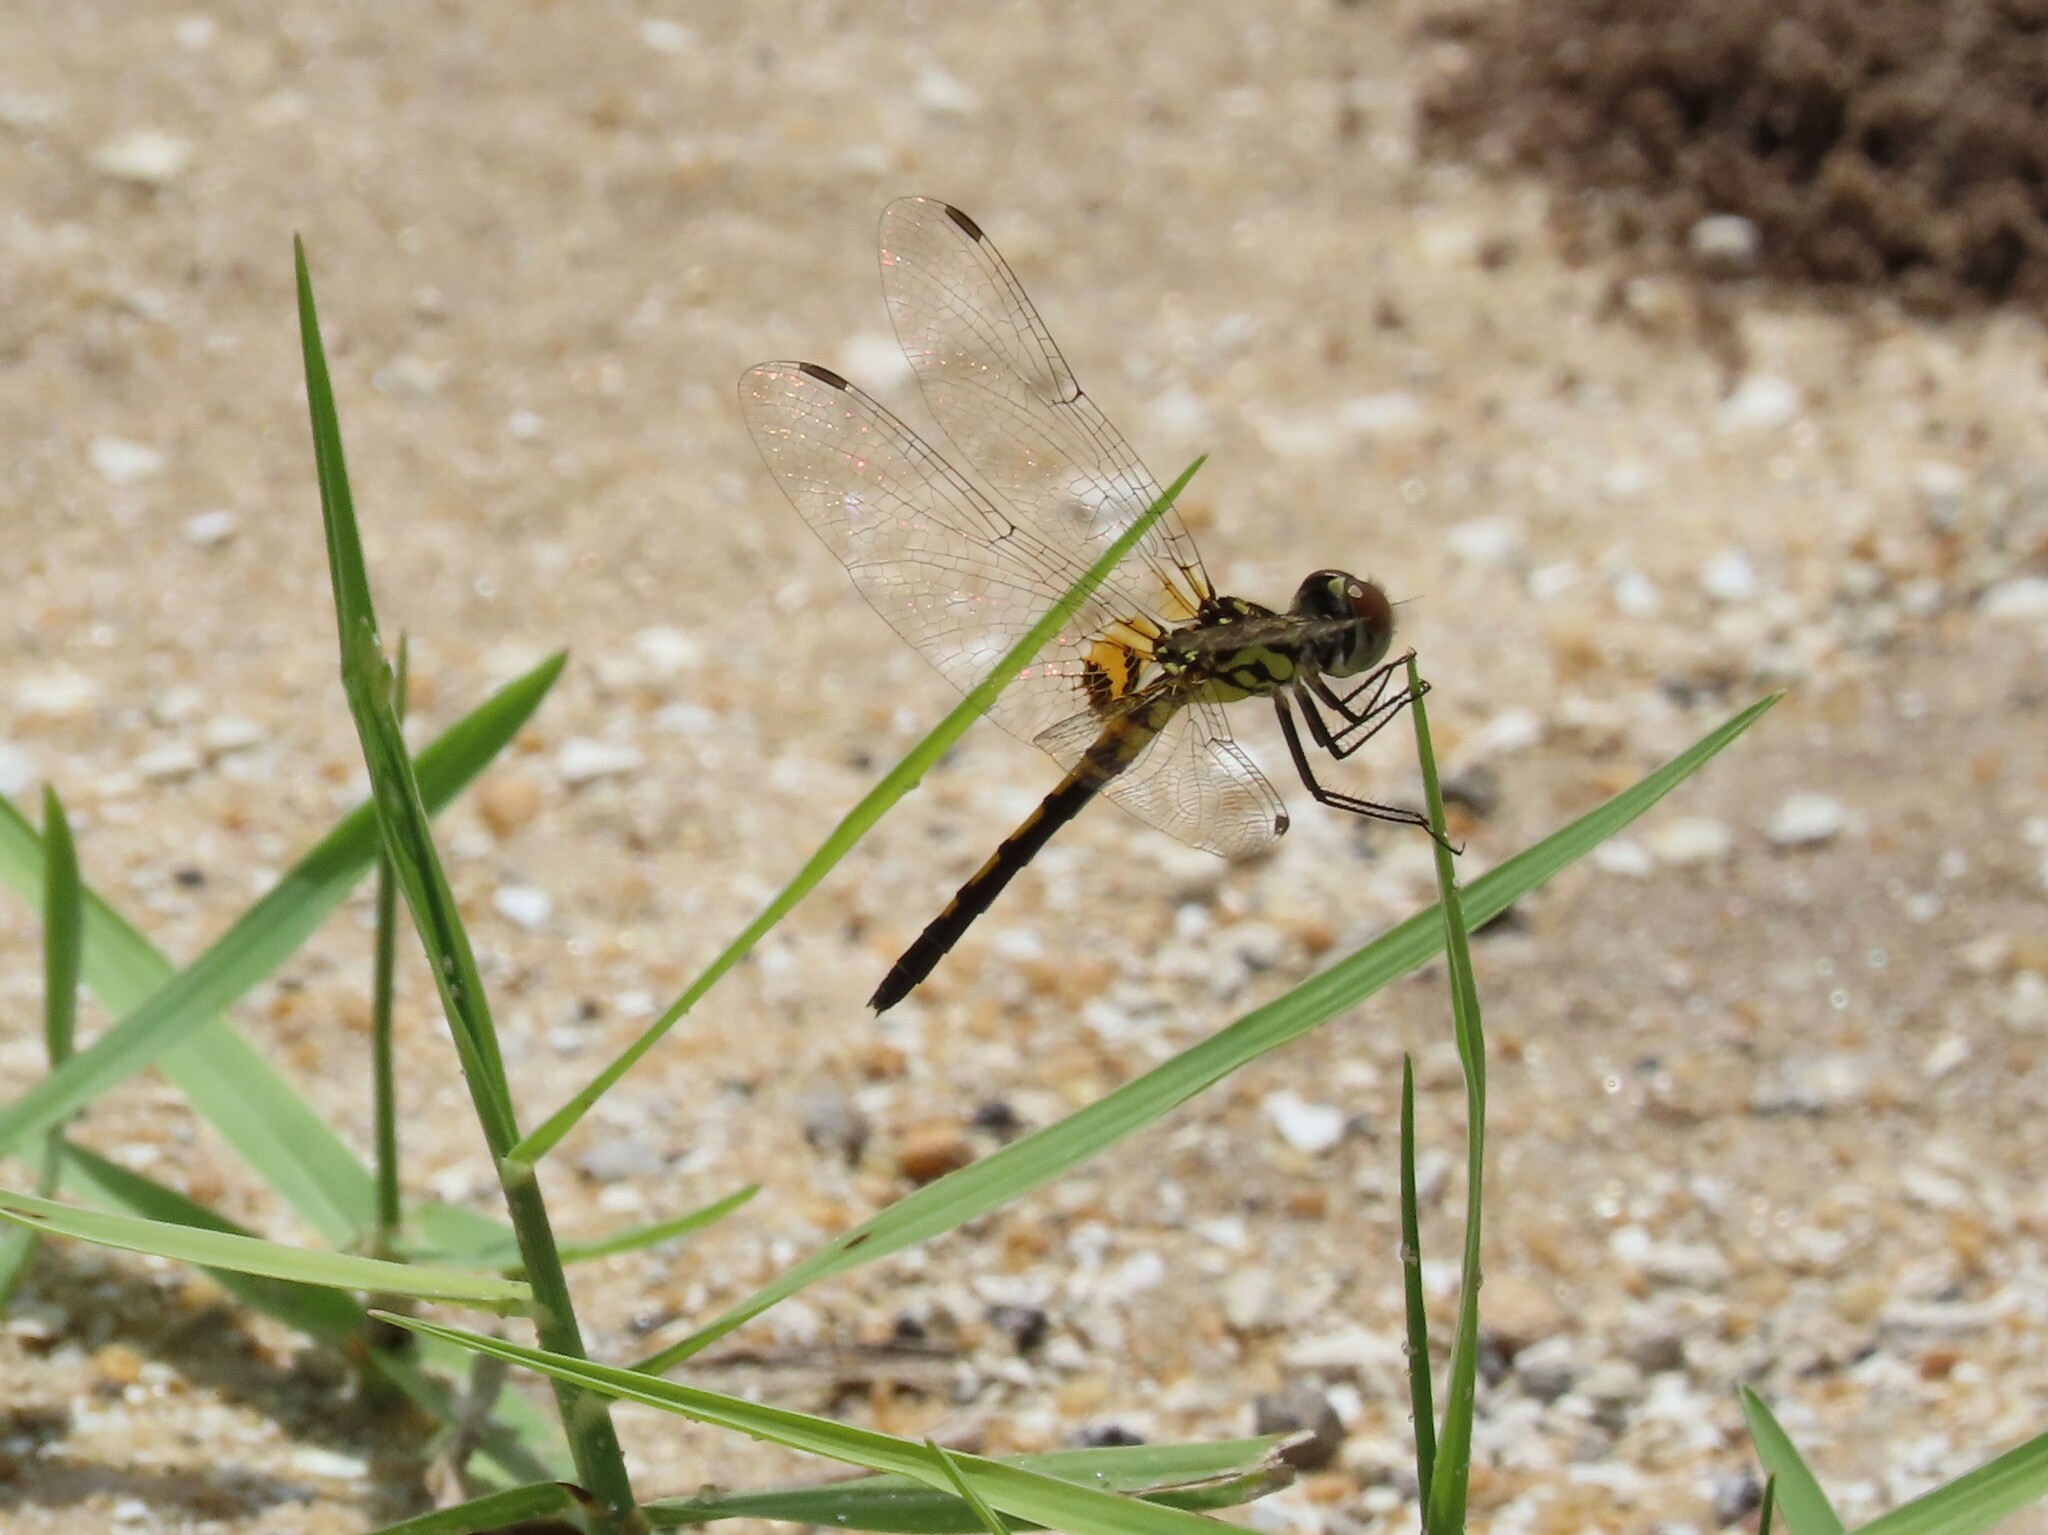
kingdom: Animalia
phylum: Arthropoda
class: Insecta
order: Odonata
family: Libellulidae
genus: Celithemis
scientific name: Celithemis ornata
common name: Ornate pennant
